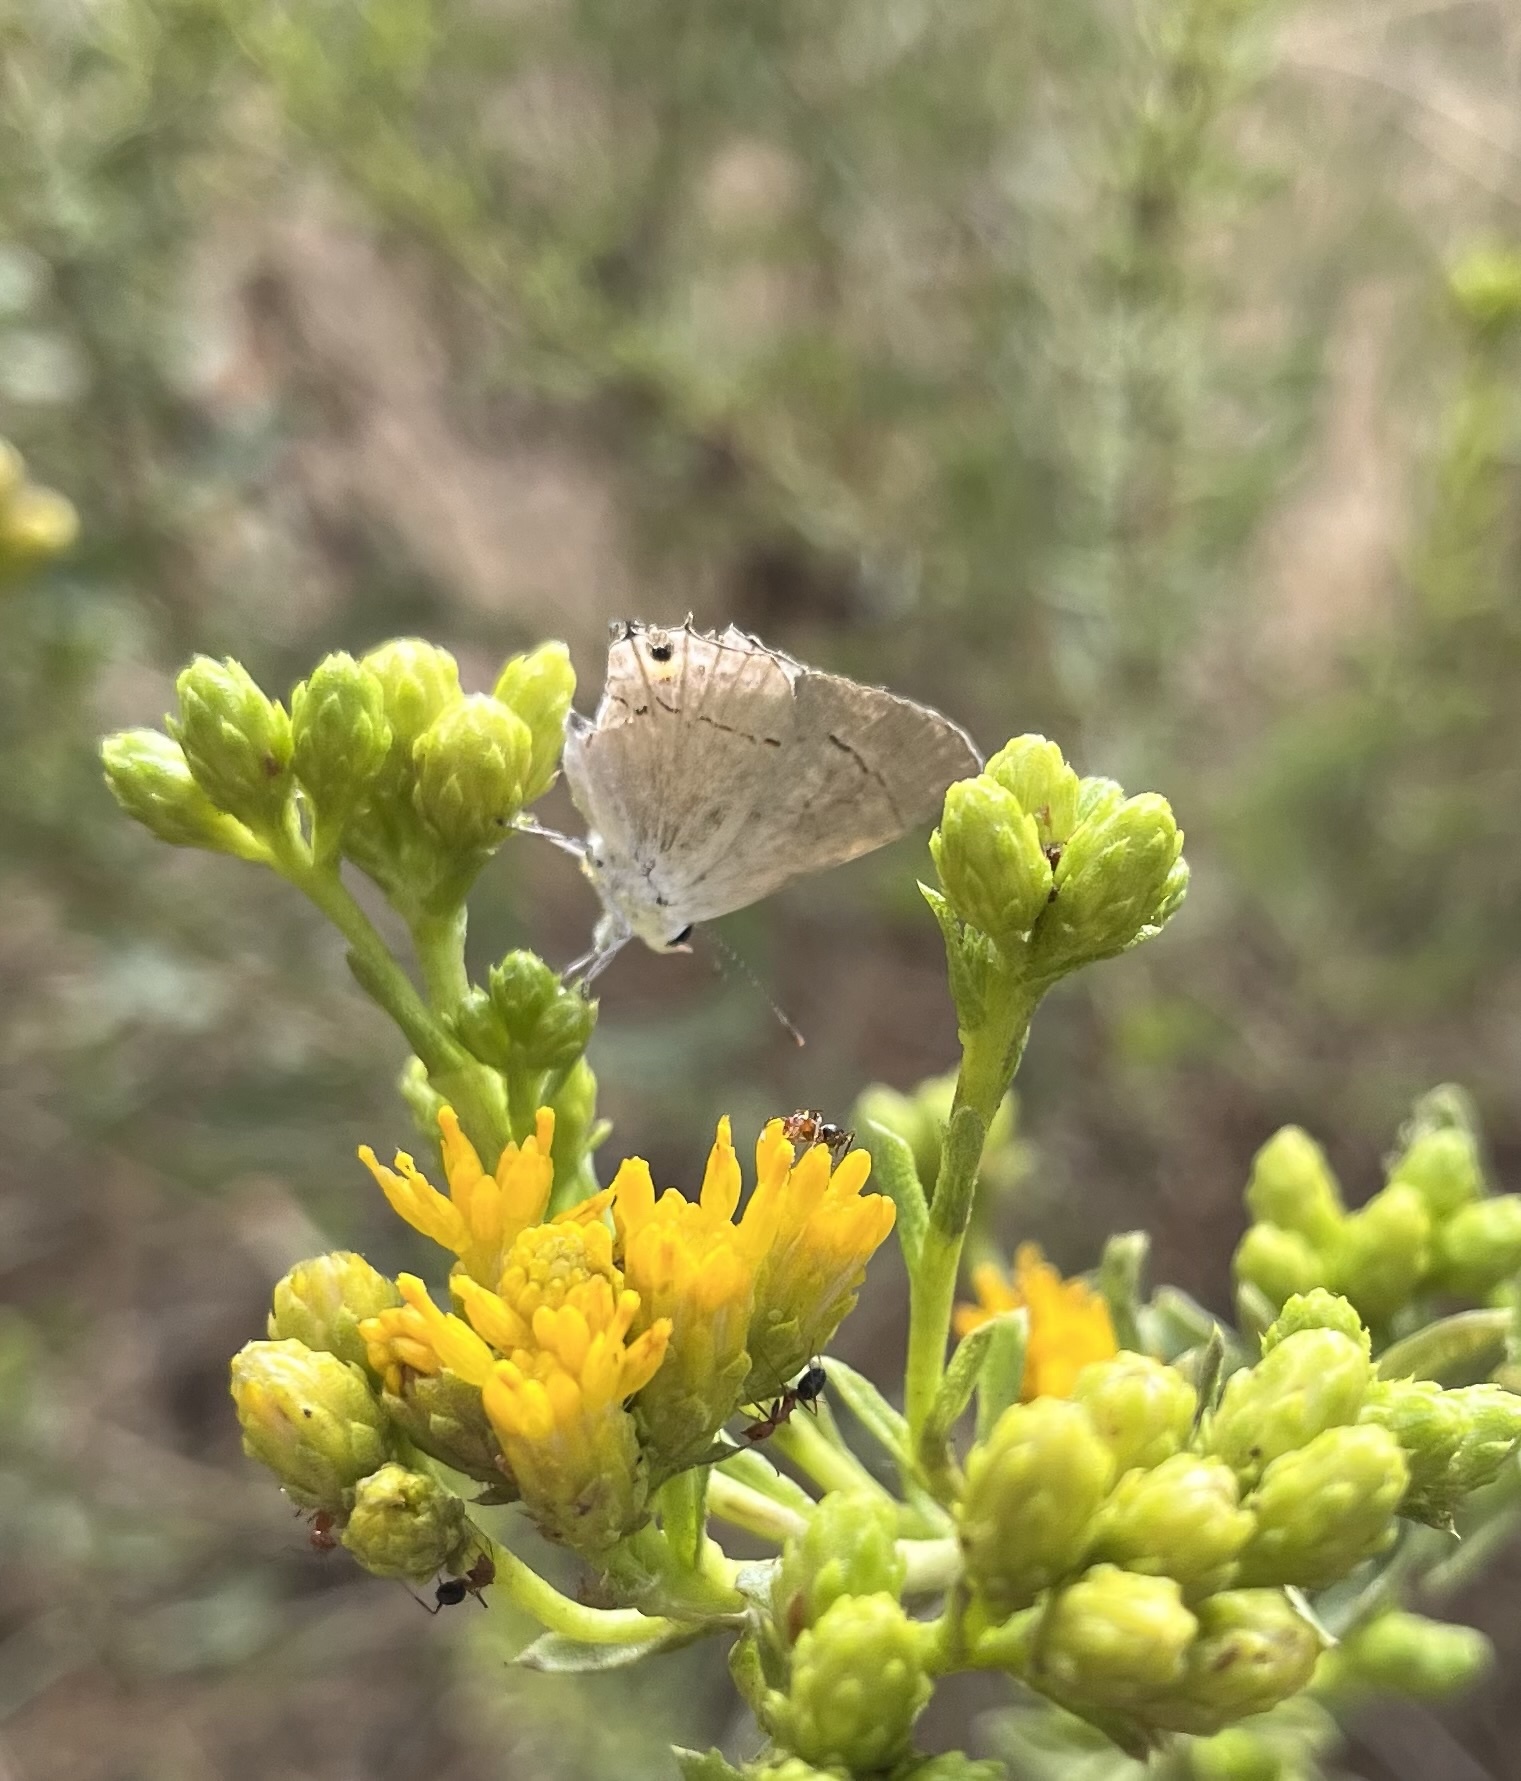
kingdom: Animalia
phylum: Arthropoda
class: Insecta
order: Lepidoptera
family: Lycaenidae
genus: Strymon
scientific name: Strymon melinus
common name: Gray hairstreak
